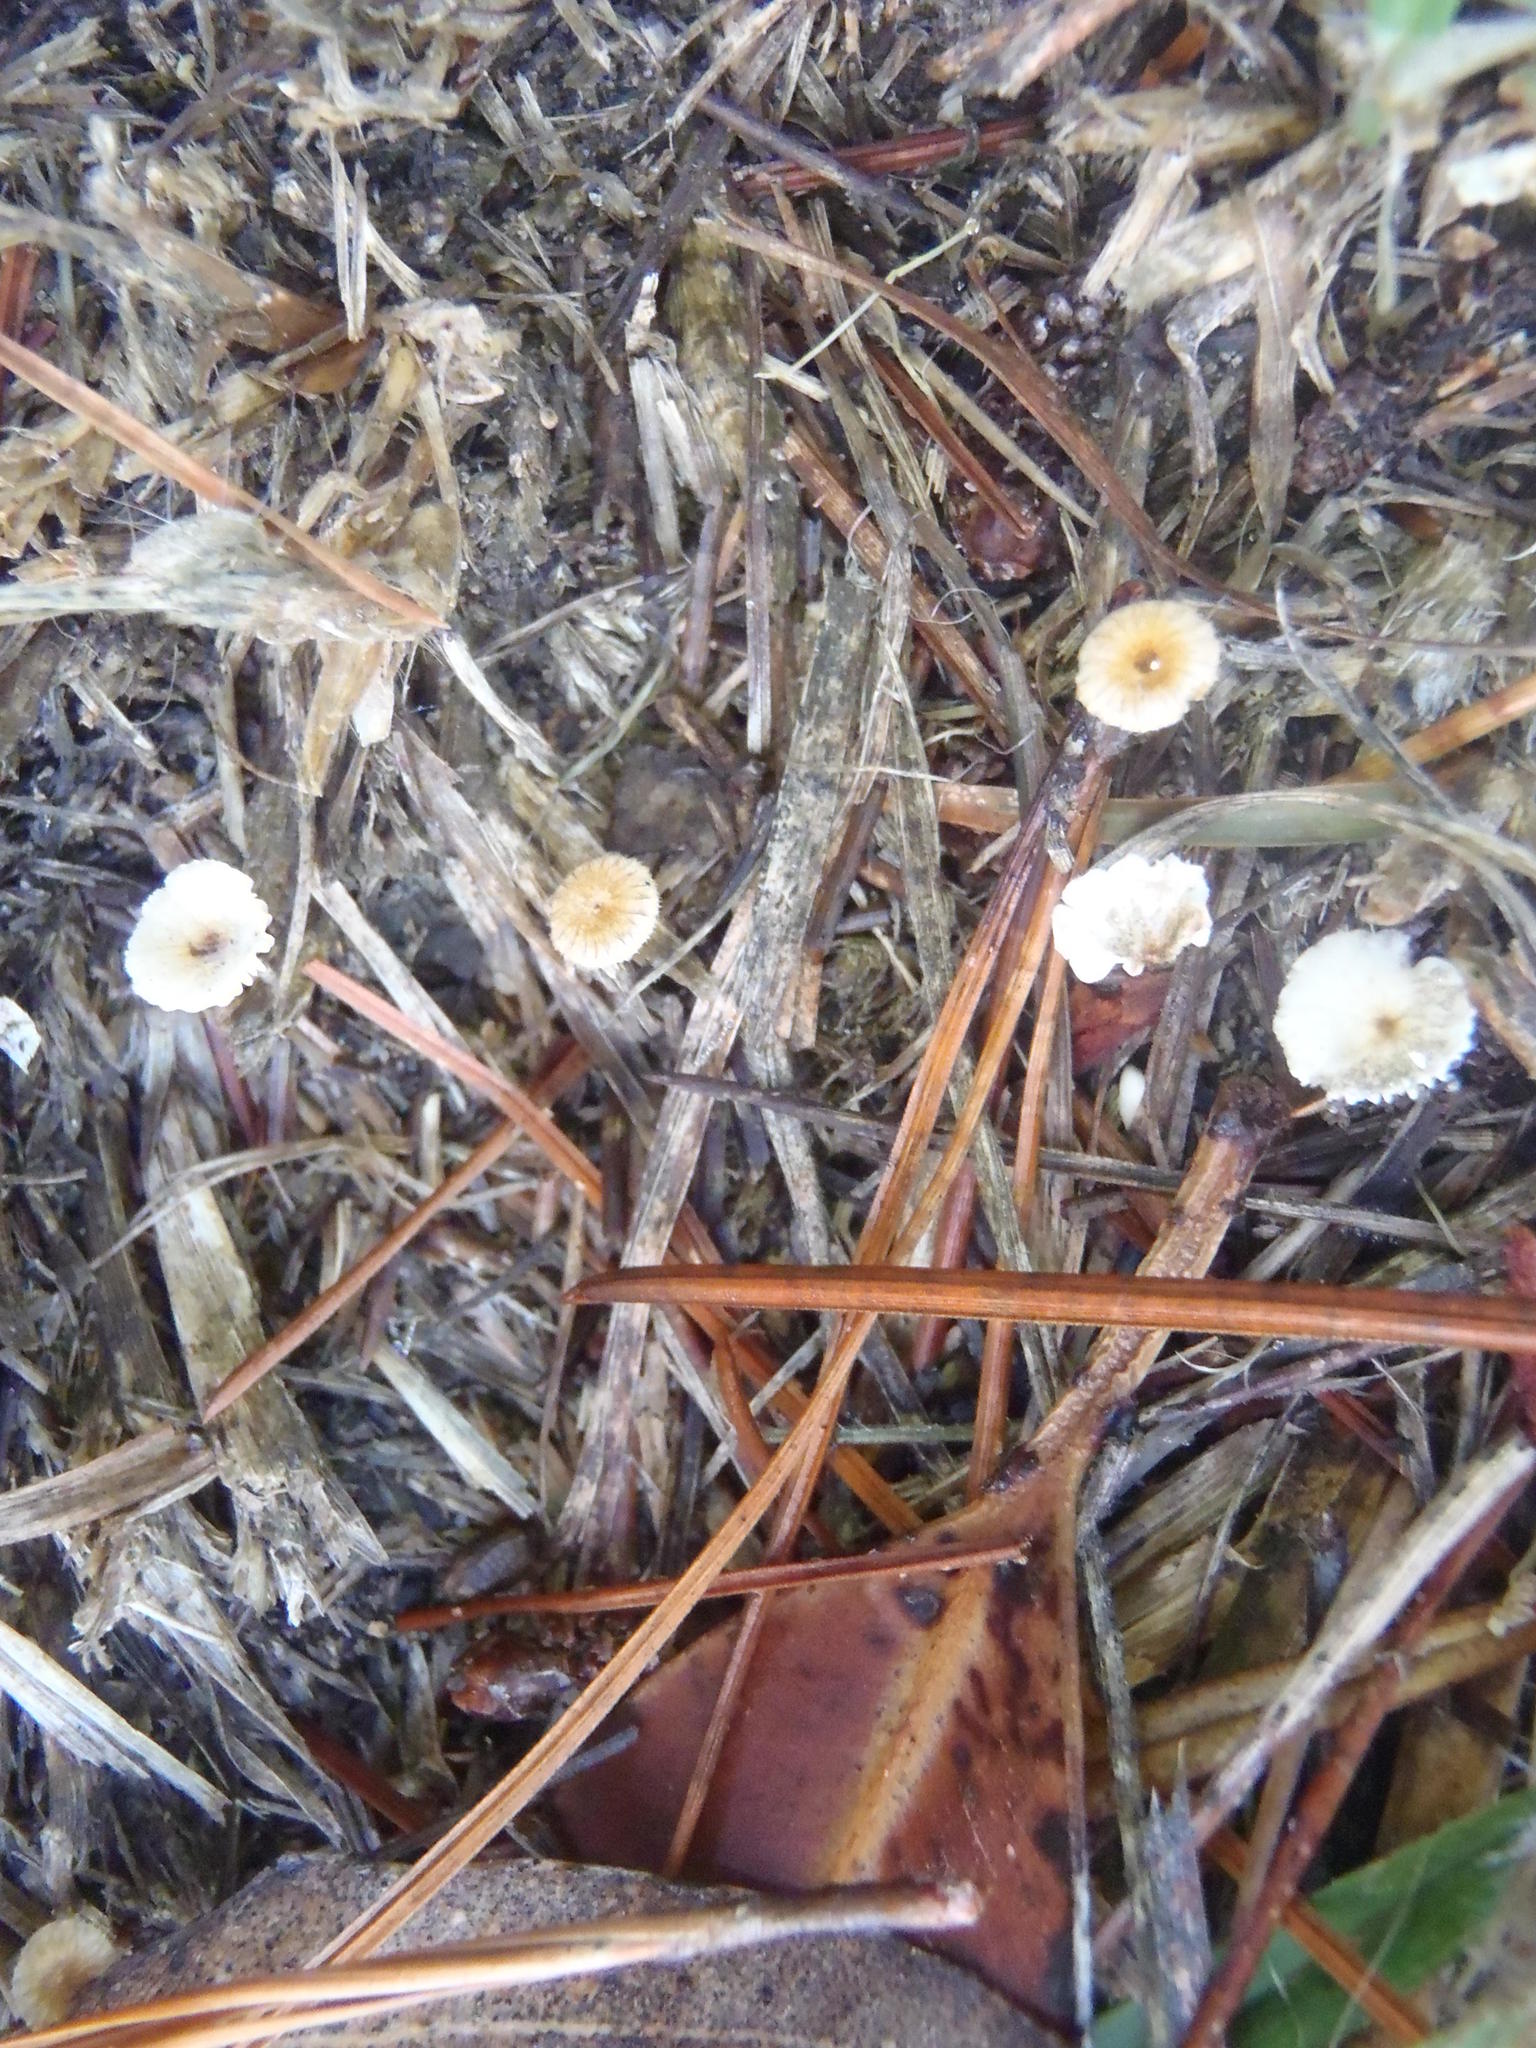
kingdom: Fungi
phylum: Basidiomycota
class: Agaricomycetes
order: Agaricales
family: Omphalotaceae
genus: Gymnopus
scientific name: Gymnopus androsaceus
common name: Horse-hair fungus
